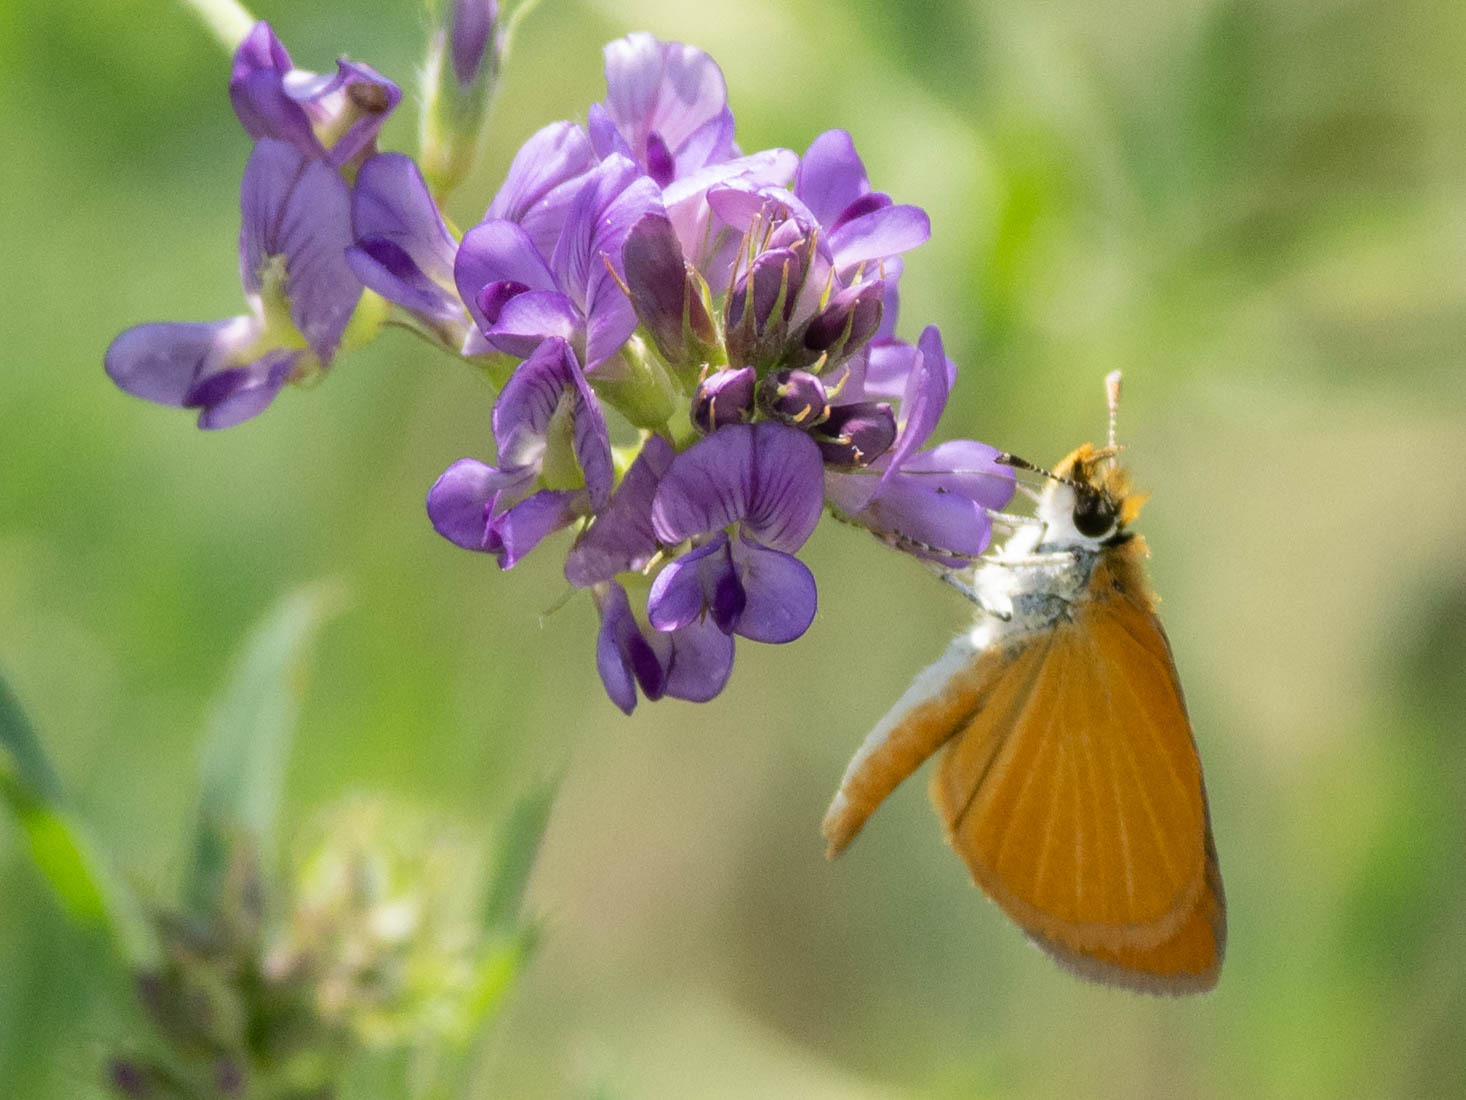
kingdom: Animalia
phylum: Arthropoda
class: Insecta
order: Lepidoptera
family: Hesperiidae
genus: Ancyloxypha
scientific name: Ancyloxypha numitor
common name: Least skipper
